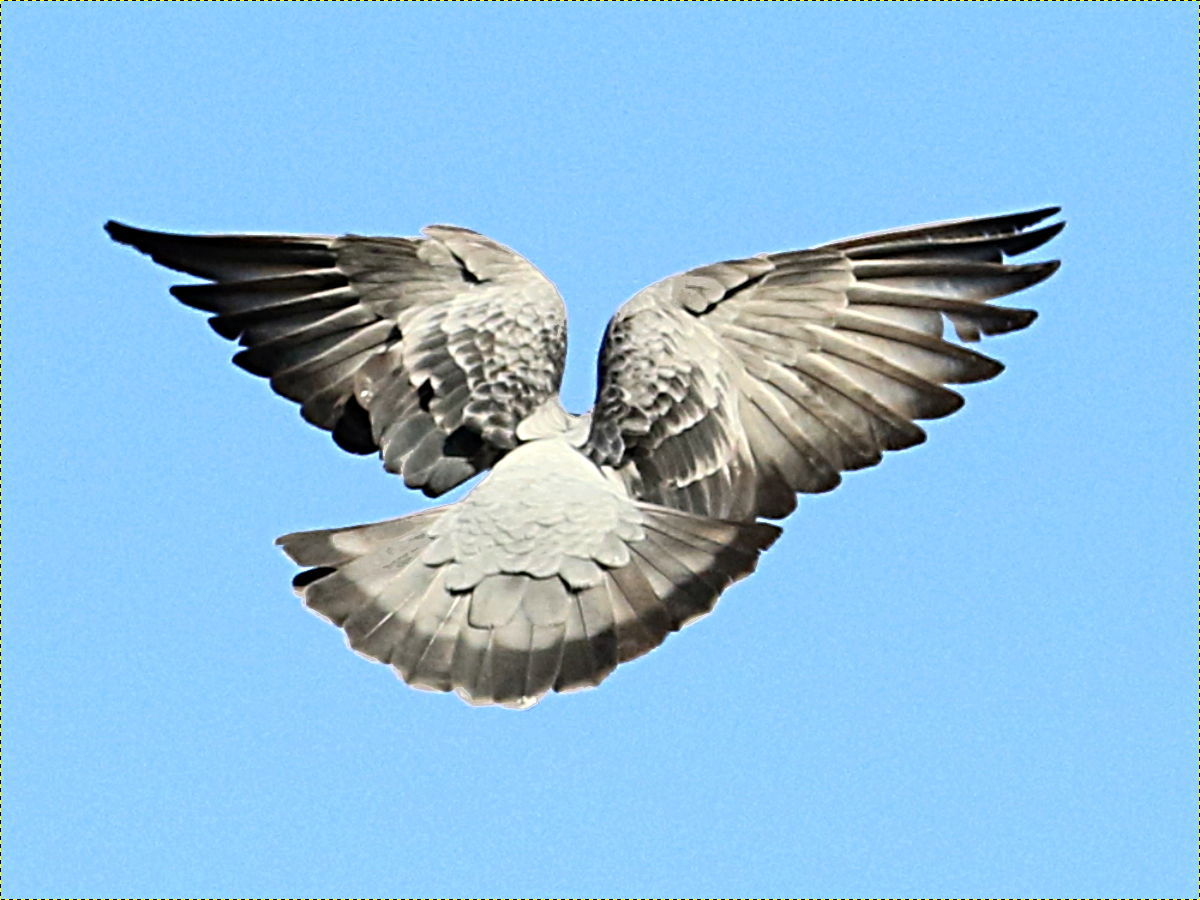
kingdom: Animalia
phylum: Chordata
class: Aves
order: Columbiformes
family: Columbidae
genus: Columba
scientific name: Columba livia
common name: Rock pigeon
